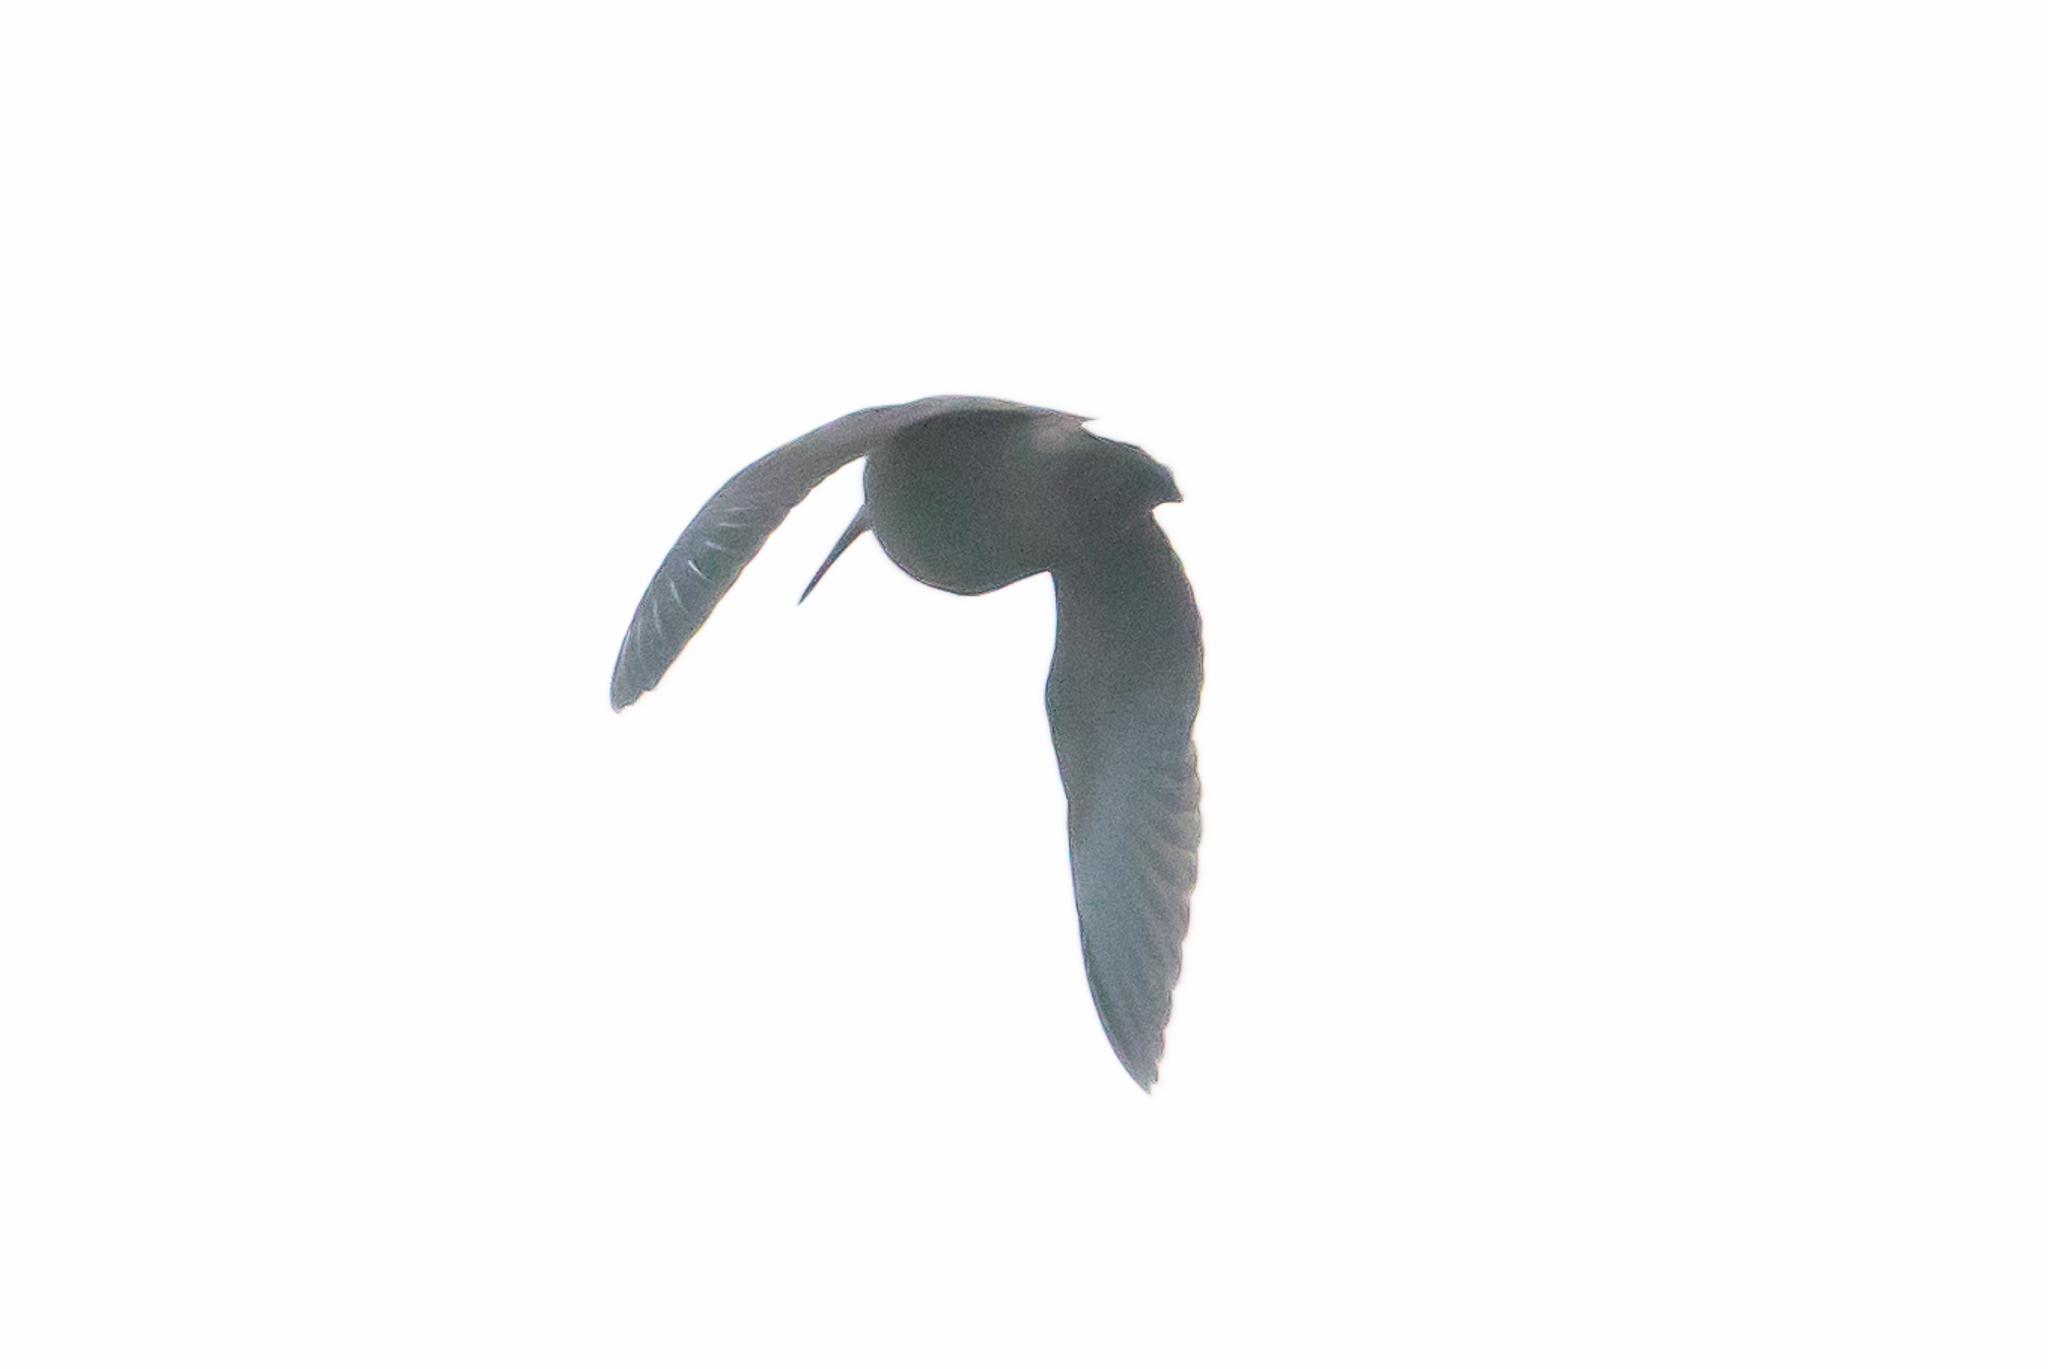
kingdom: Animalia
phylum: Chordata
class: Aves
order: Charadriiformes
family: Scolopacidae
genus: Scolopax
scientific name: Scolopax rusticola
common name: Eurasian woodcock
